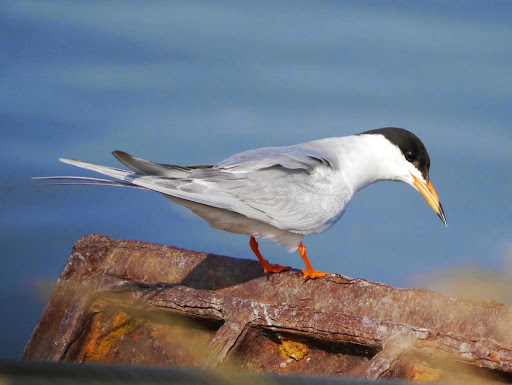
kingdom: Animalia
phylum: Chordata
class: Aves
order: Charadriiformes
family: Laridae
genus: Sterna
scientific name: Sterna forsteri
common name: Forster's tern
